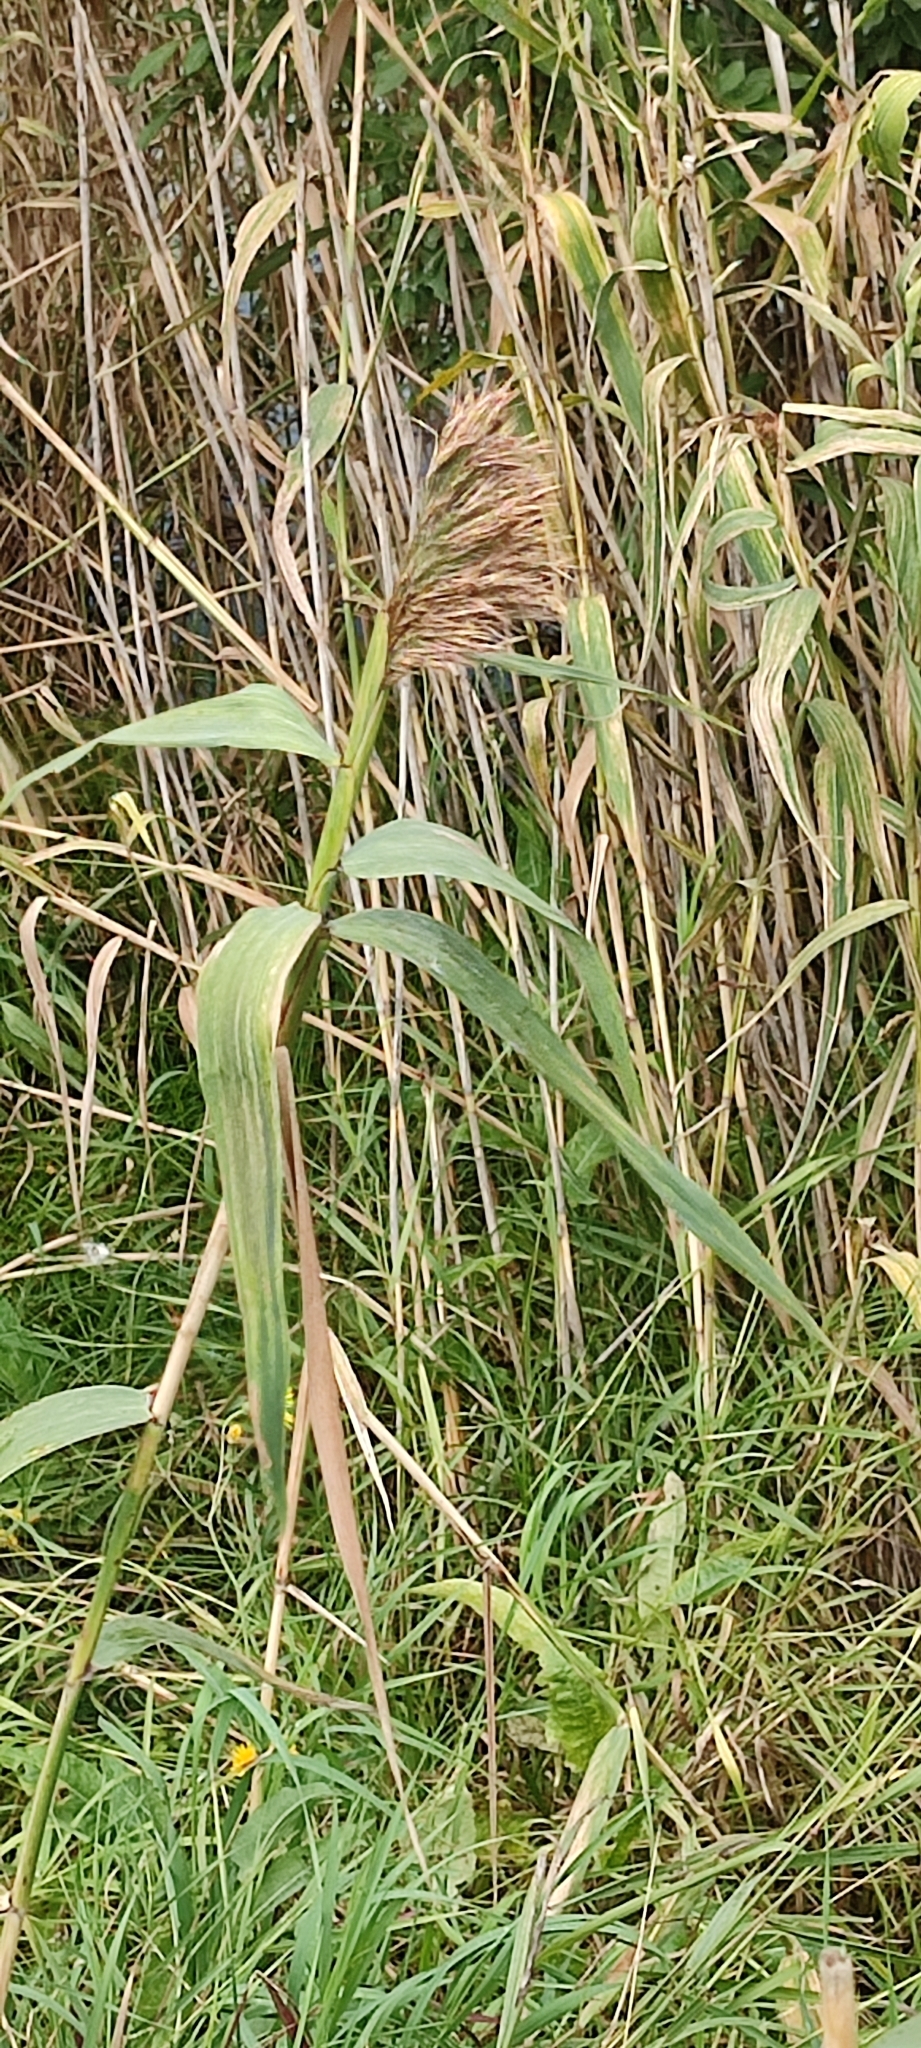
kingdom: Plantae
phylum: Tracheophyta
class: Liliopsida
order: Poales
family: Poaceae
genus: Phragmites
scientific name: Phragmites australis
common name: Common reed
